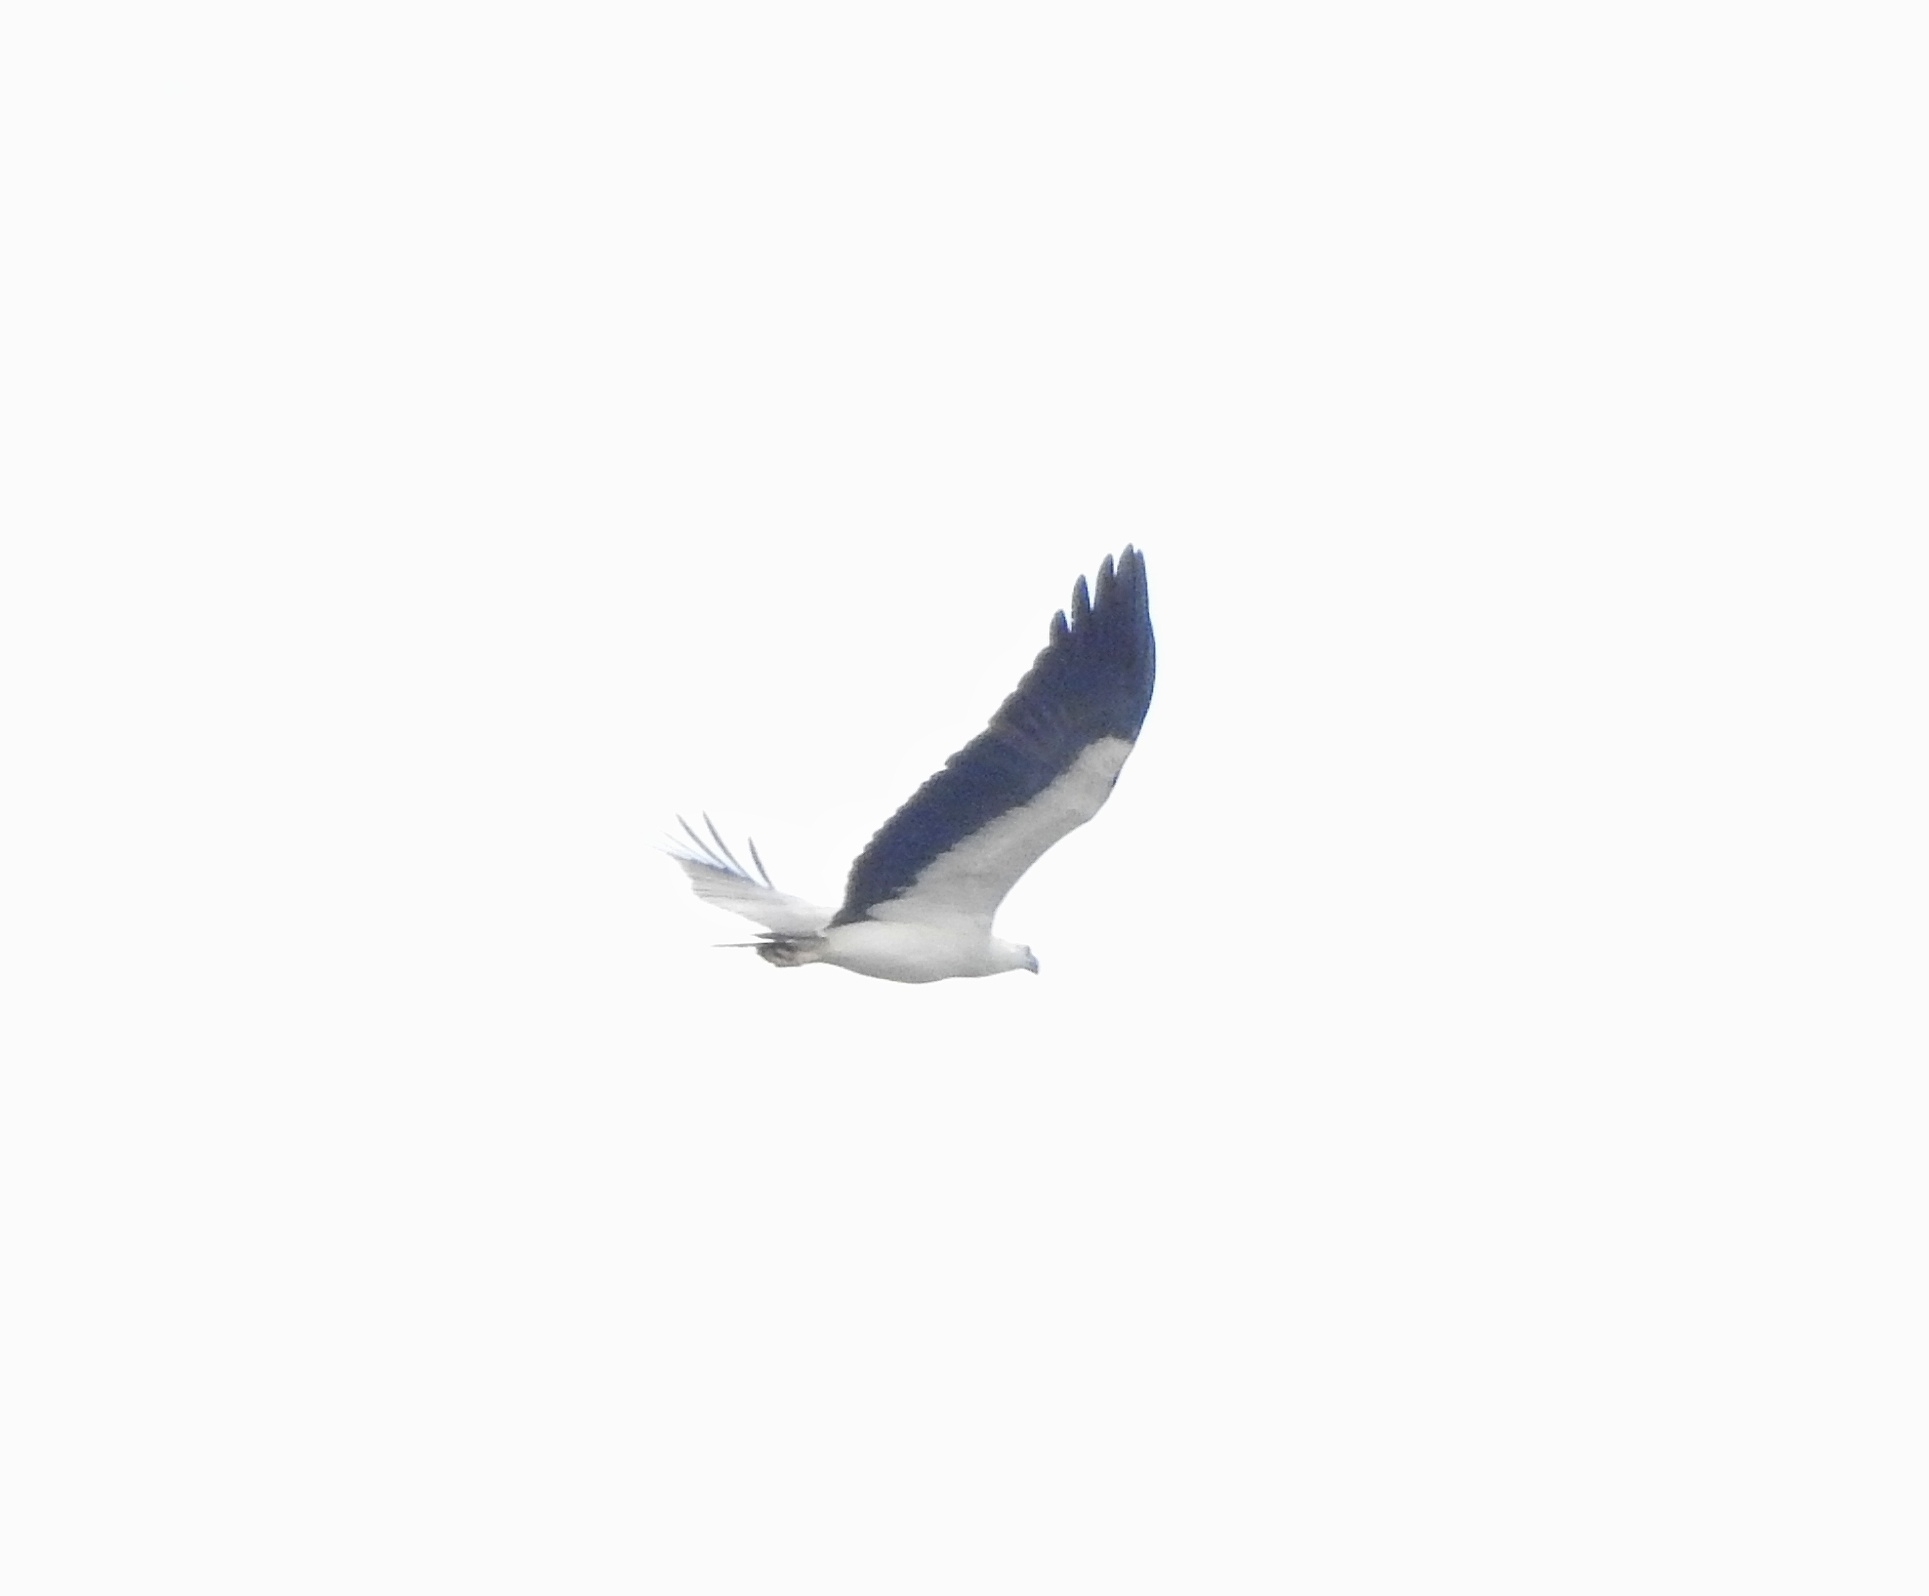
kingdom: Animalia
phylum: Chordata
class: Aves
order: Accipitriformes
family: Accipitridae
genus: Haliaeetus
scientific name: Haliaeetus leucogaster
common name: White-bellied sea eagle
